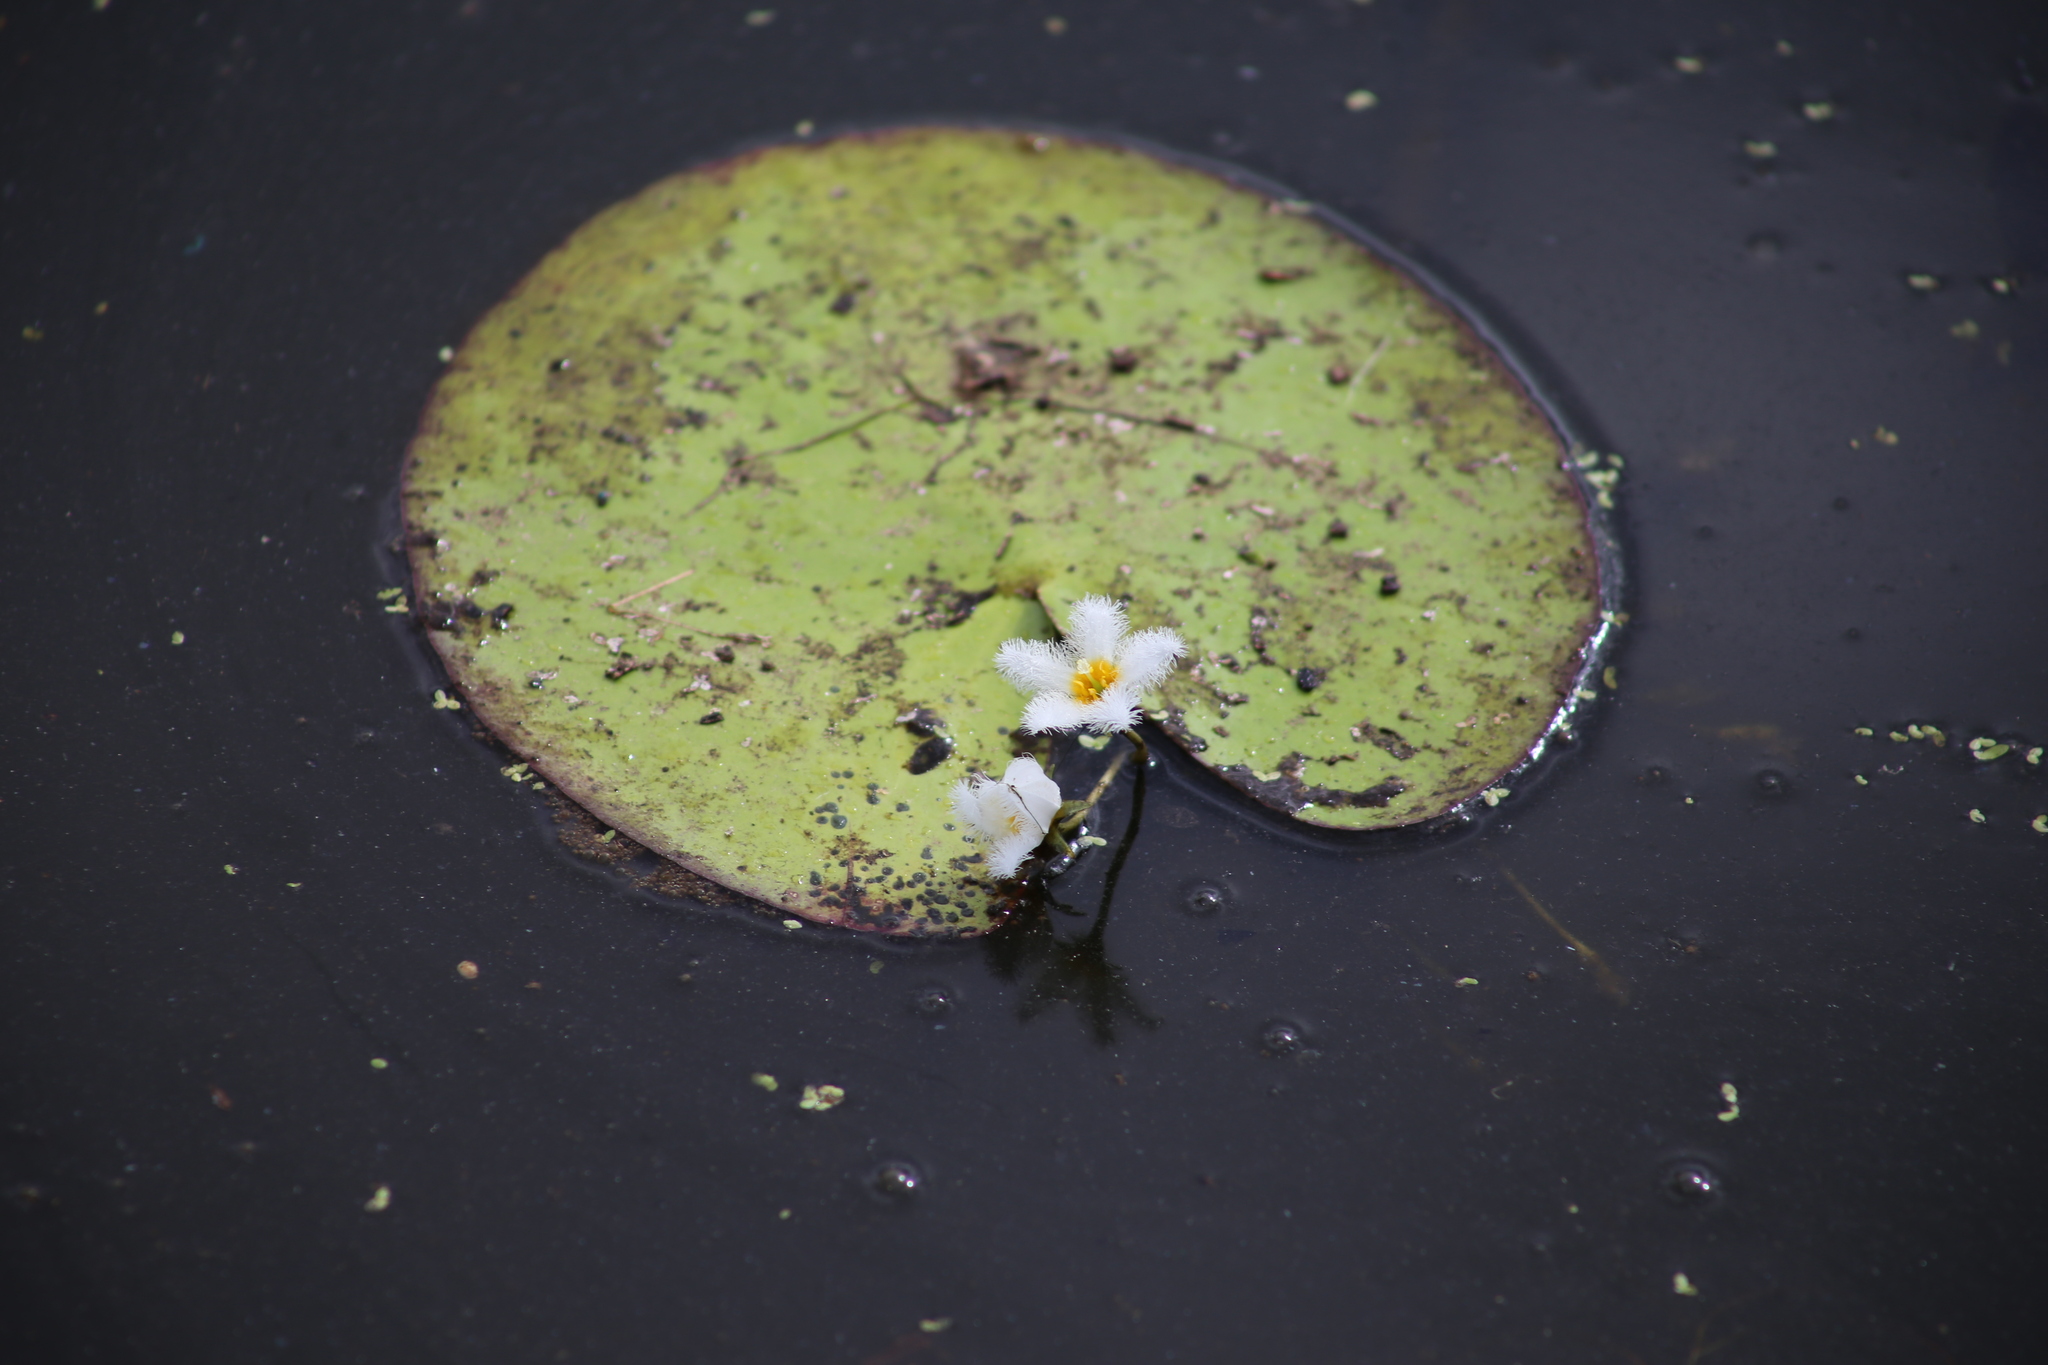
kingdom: Plantae
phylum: Tracheophyta
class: Magnoliopsida
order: Asterales
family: Menyanthaceae
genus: Nymphoides
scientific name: Nymphoides indica
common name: Water-snowflake
